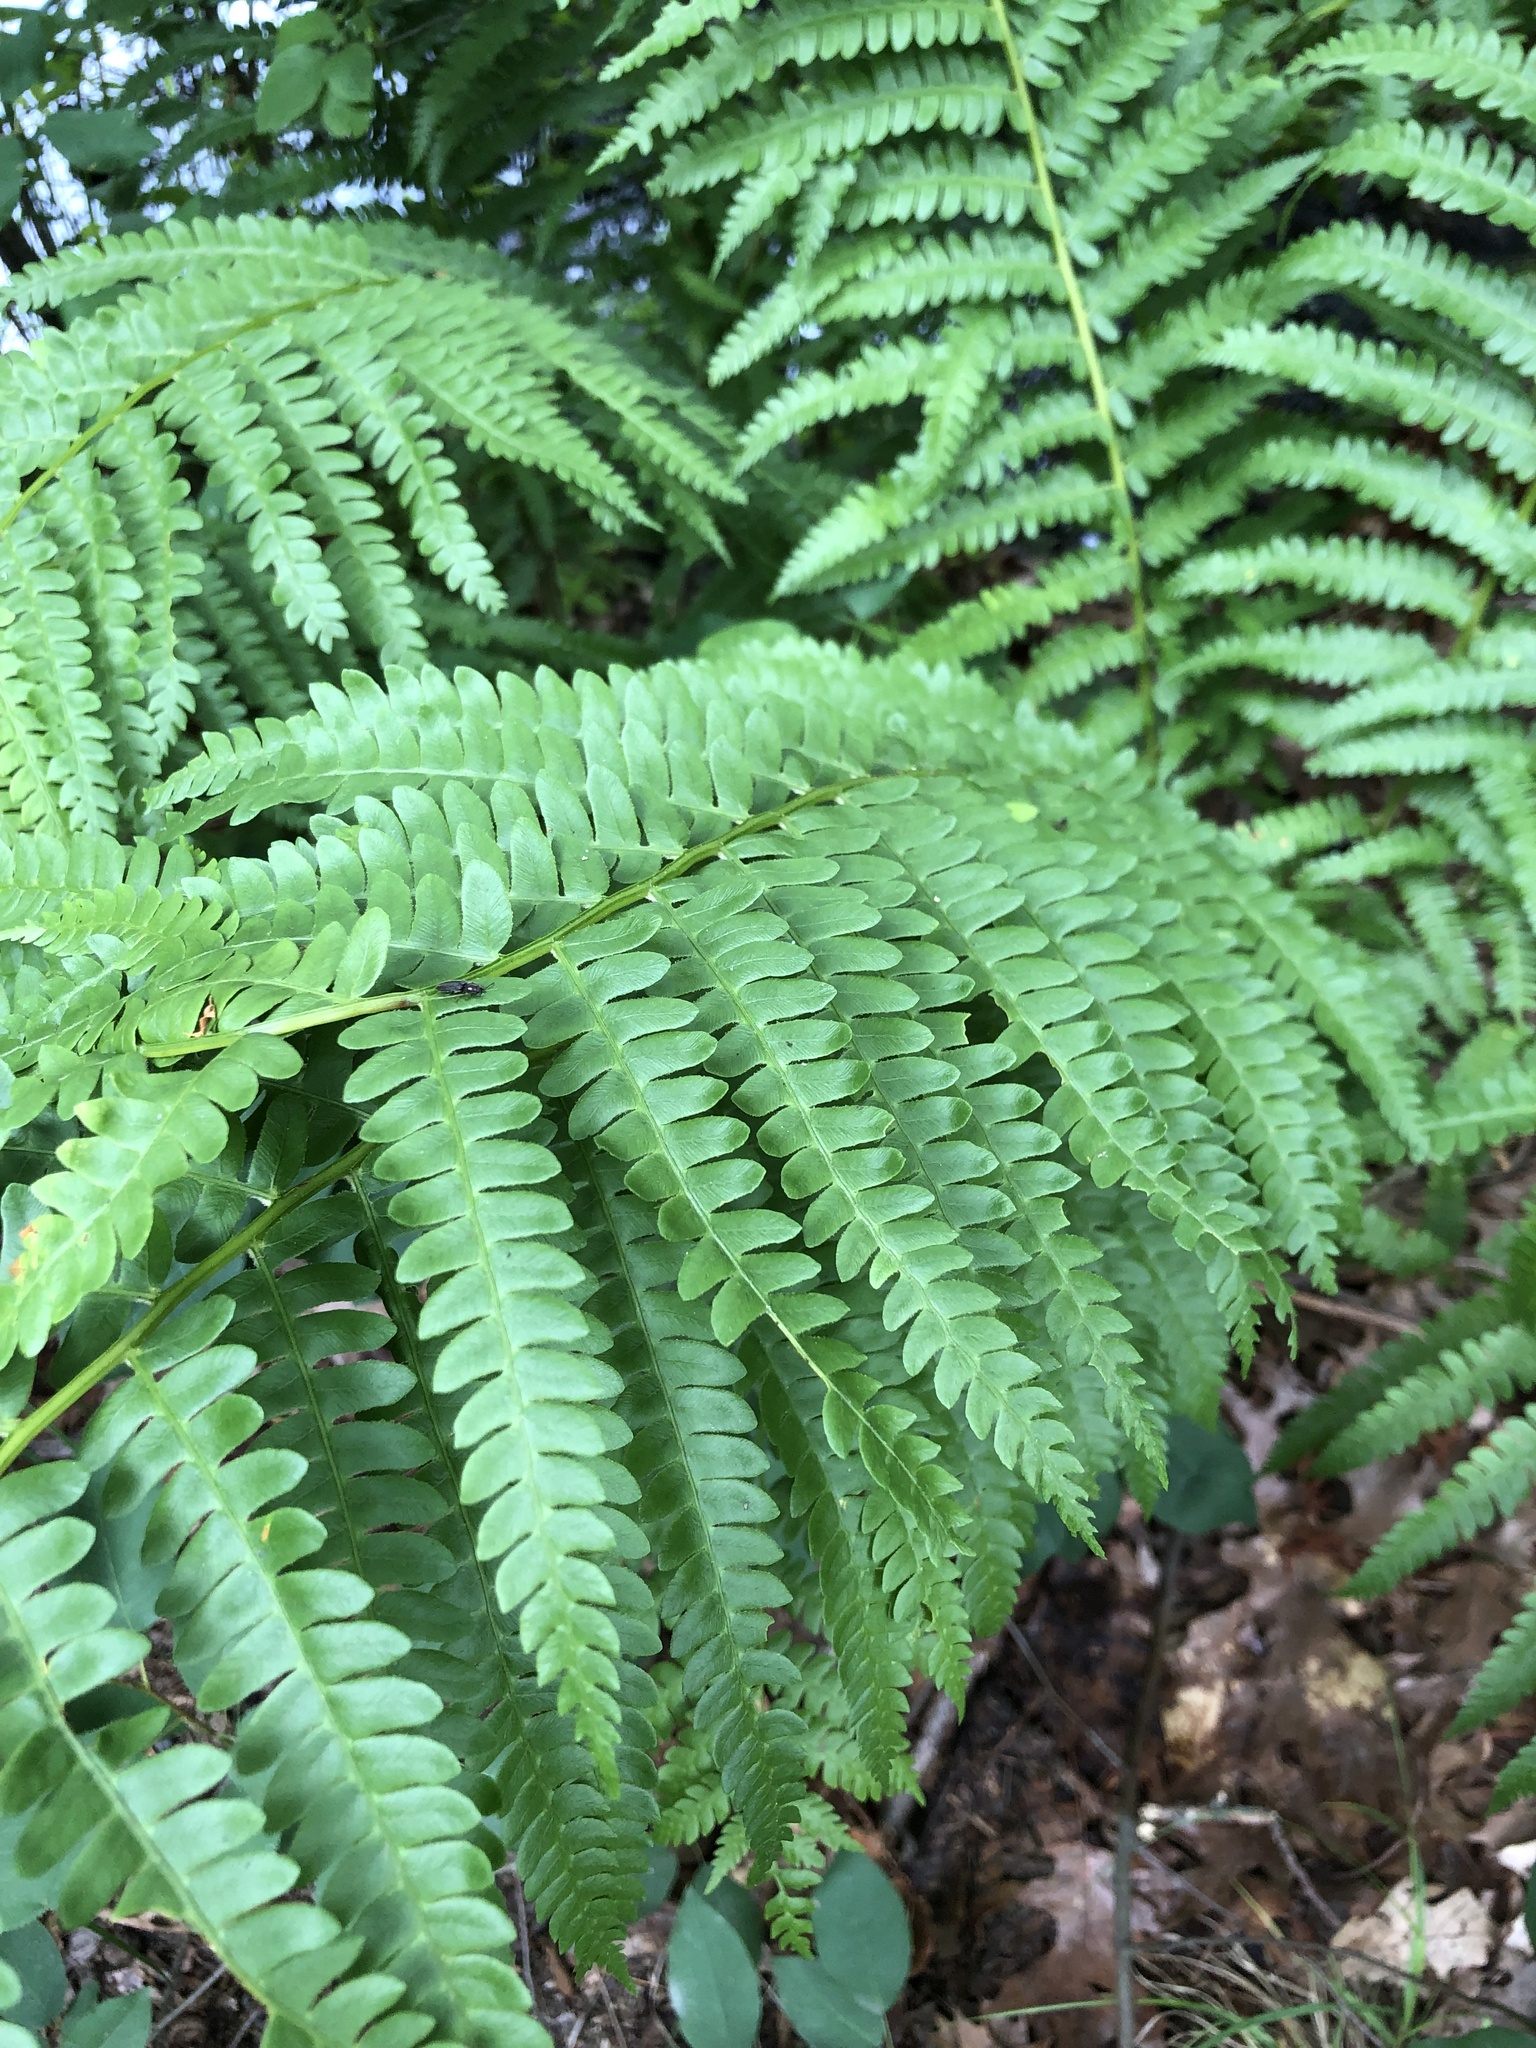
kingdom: Plantae
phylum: Tracheophyta
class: Polypodiopsida
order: Osmundales
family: Osmundaceae
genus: Osmundastrum
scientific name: Osmundastrum cinnamomeum
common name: Cinnamon fern
